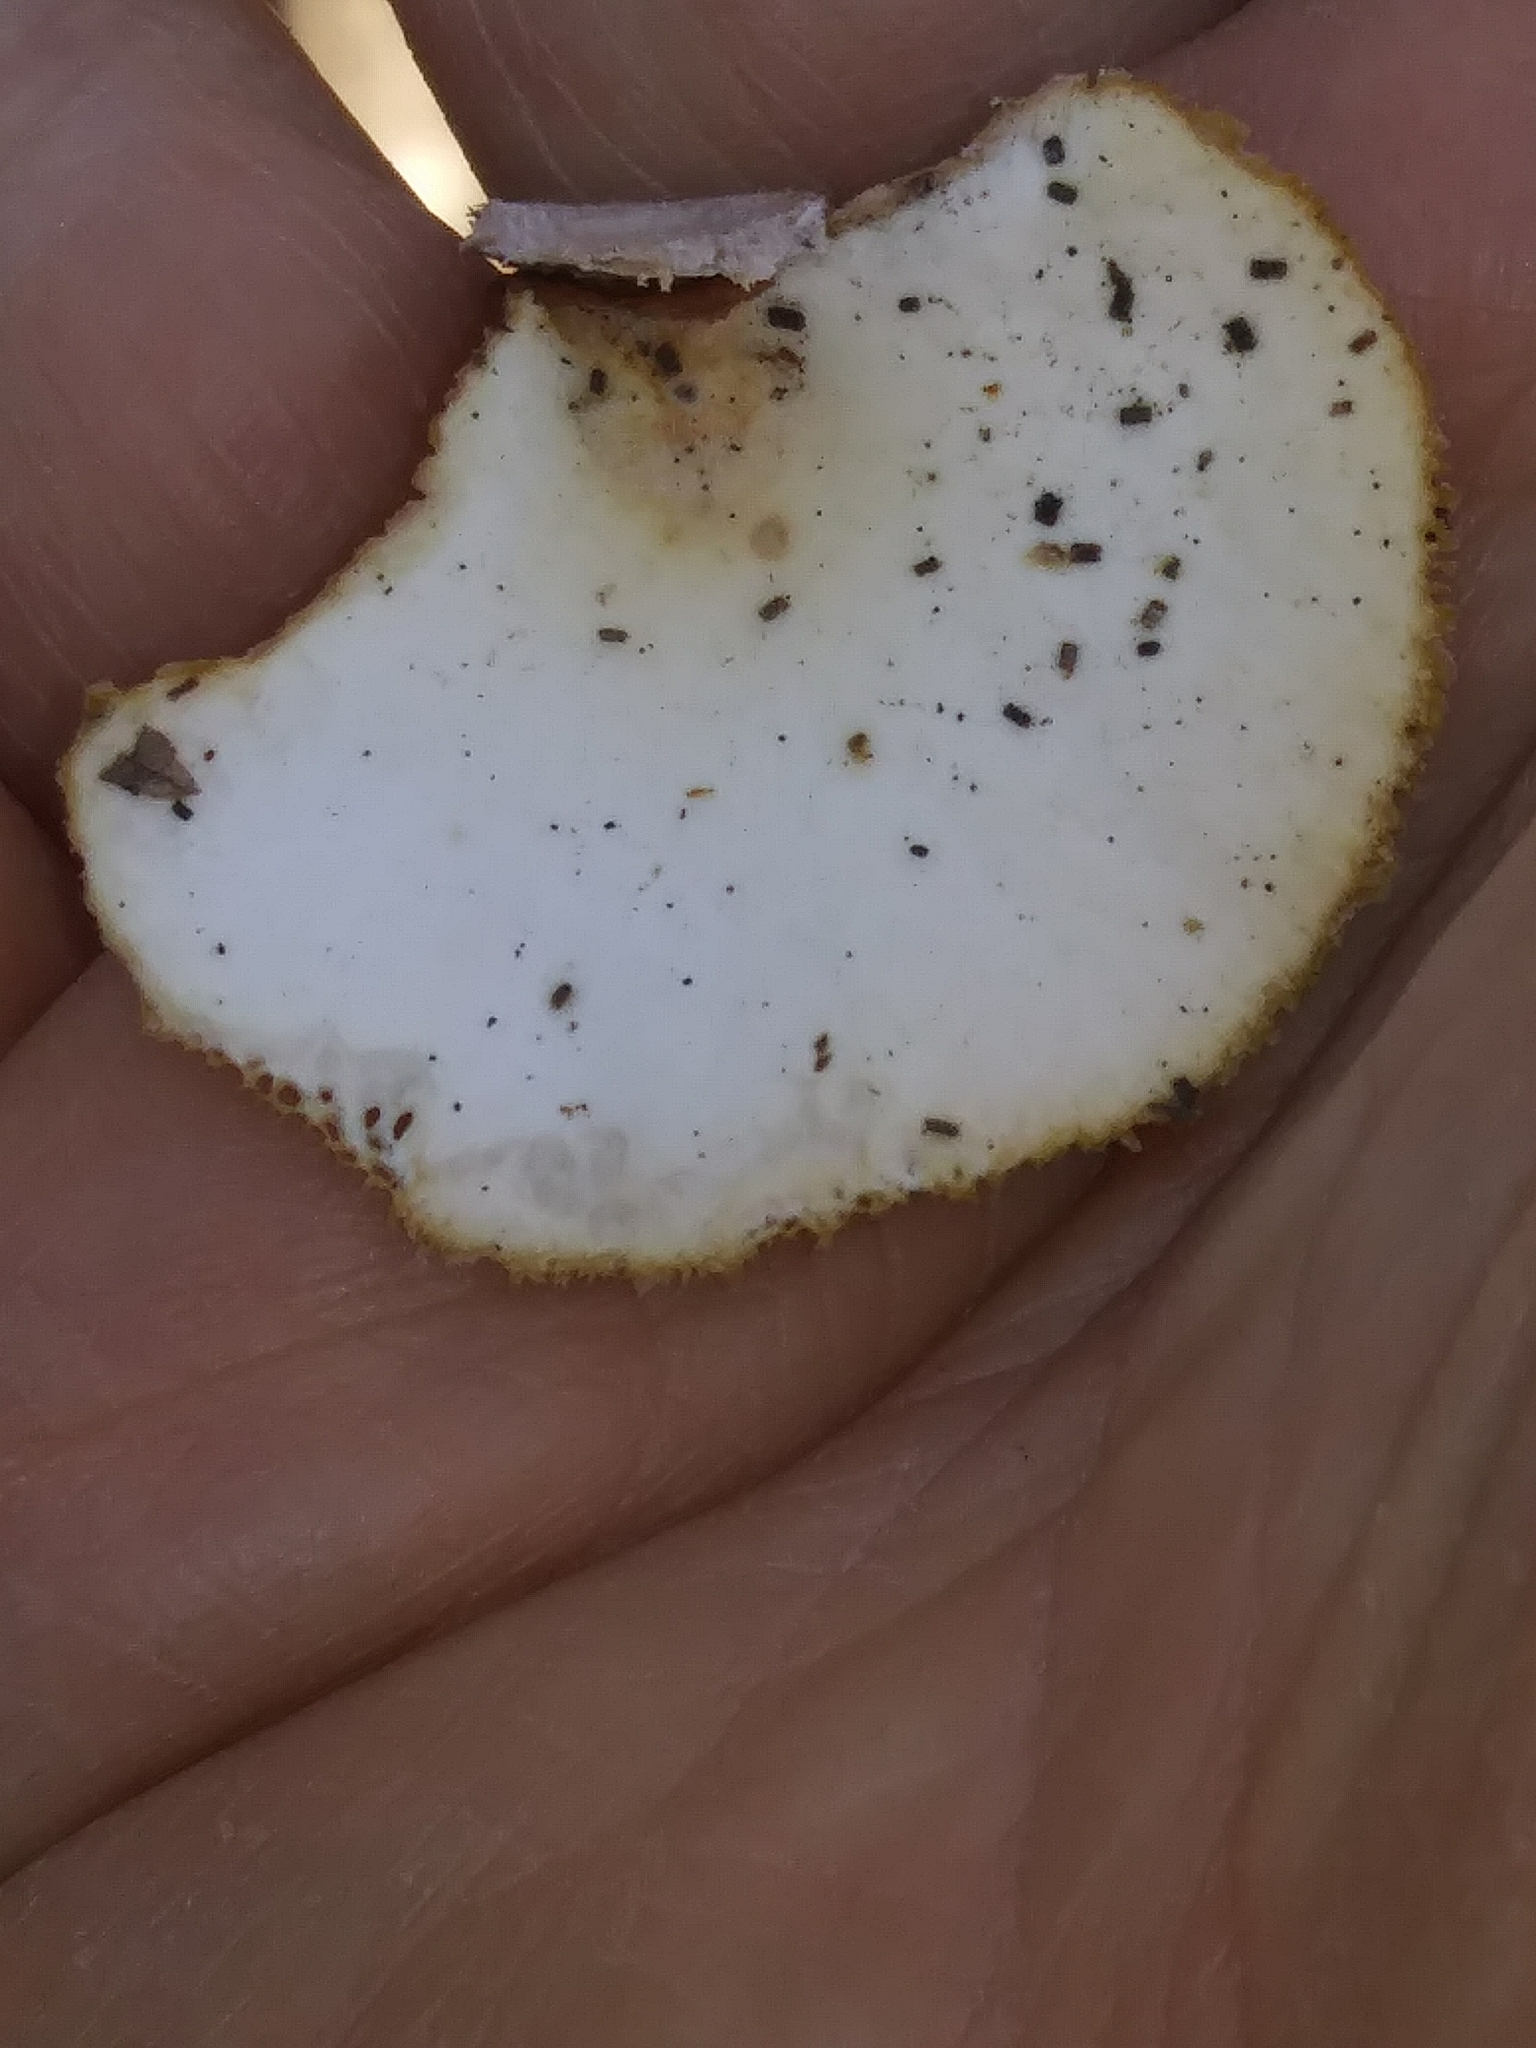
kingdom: Fungi
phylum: Basidiomycota
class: Agaricomycetes
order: Polyporales
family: Polyporaceae
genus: Neofavolus
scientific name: Neofavolus alveolaris
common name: Hexagonal-pored polypore
